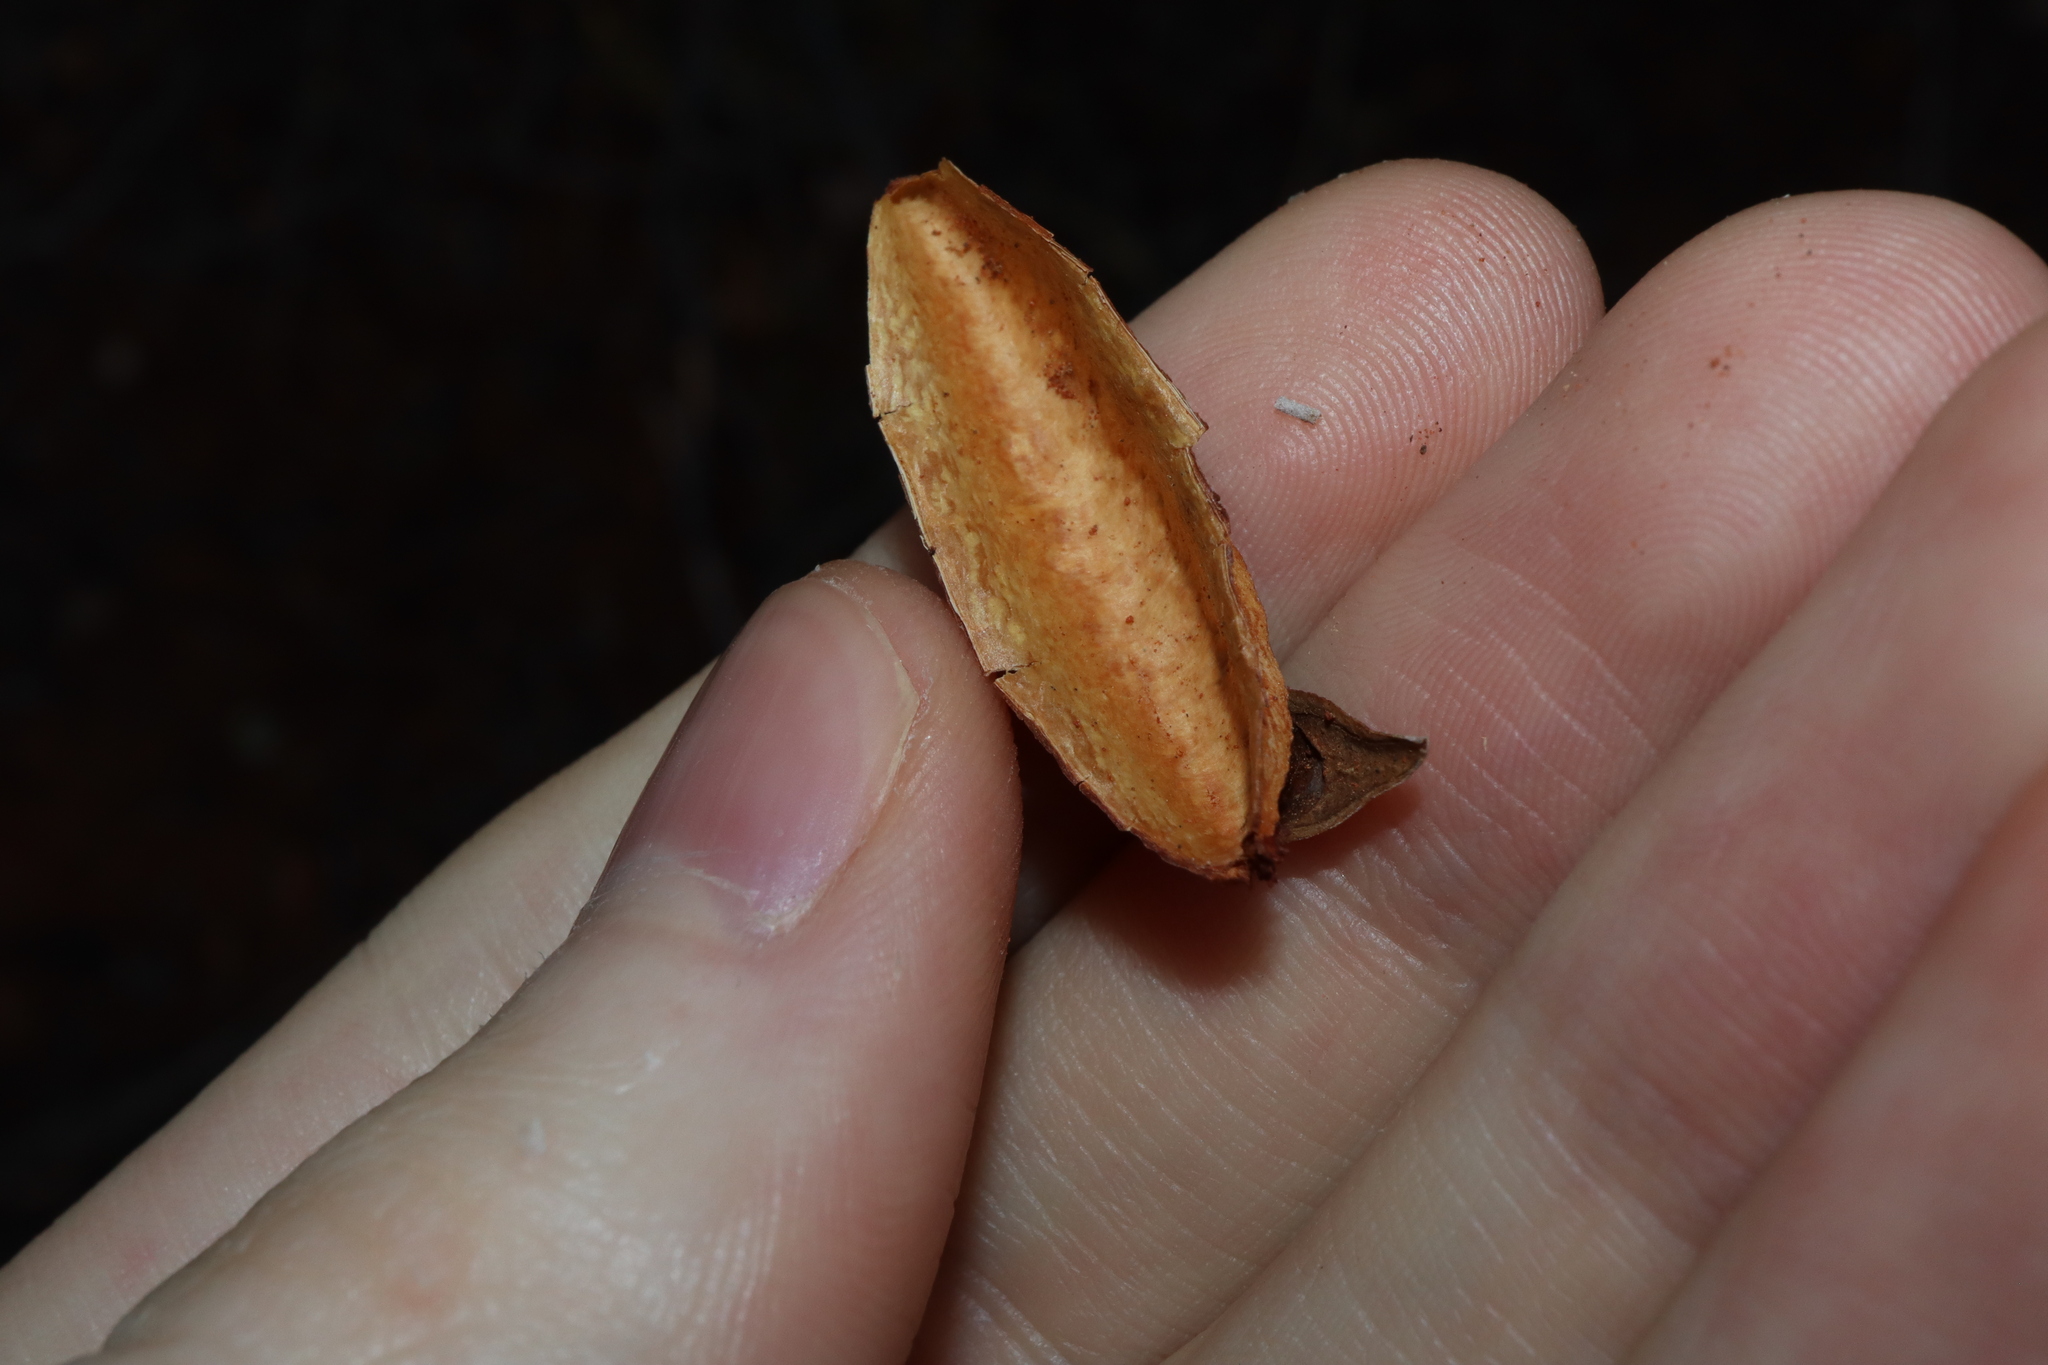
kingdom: Plantae
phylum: Tracheophyta
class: Magnoliopsida
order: Sapindales
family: Rutaceae
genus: Flindersia
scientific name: Flindersia maculosa
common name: Leopardtree
